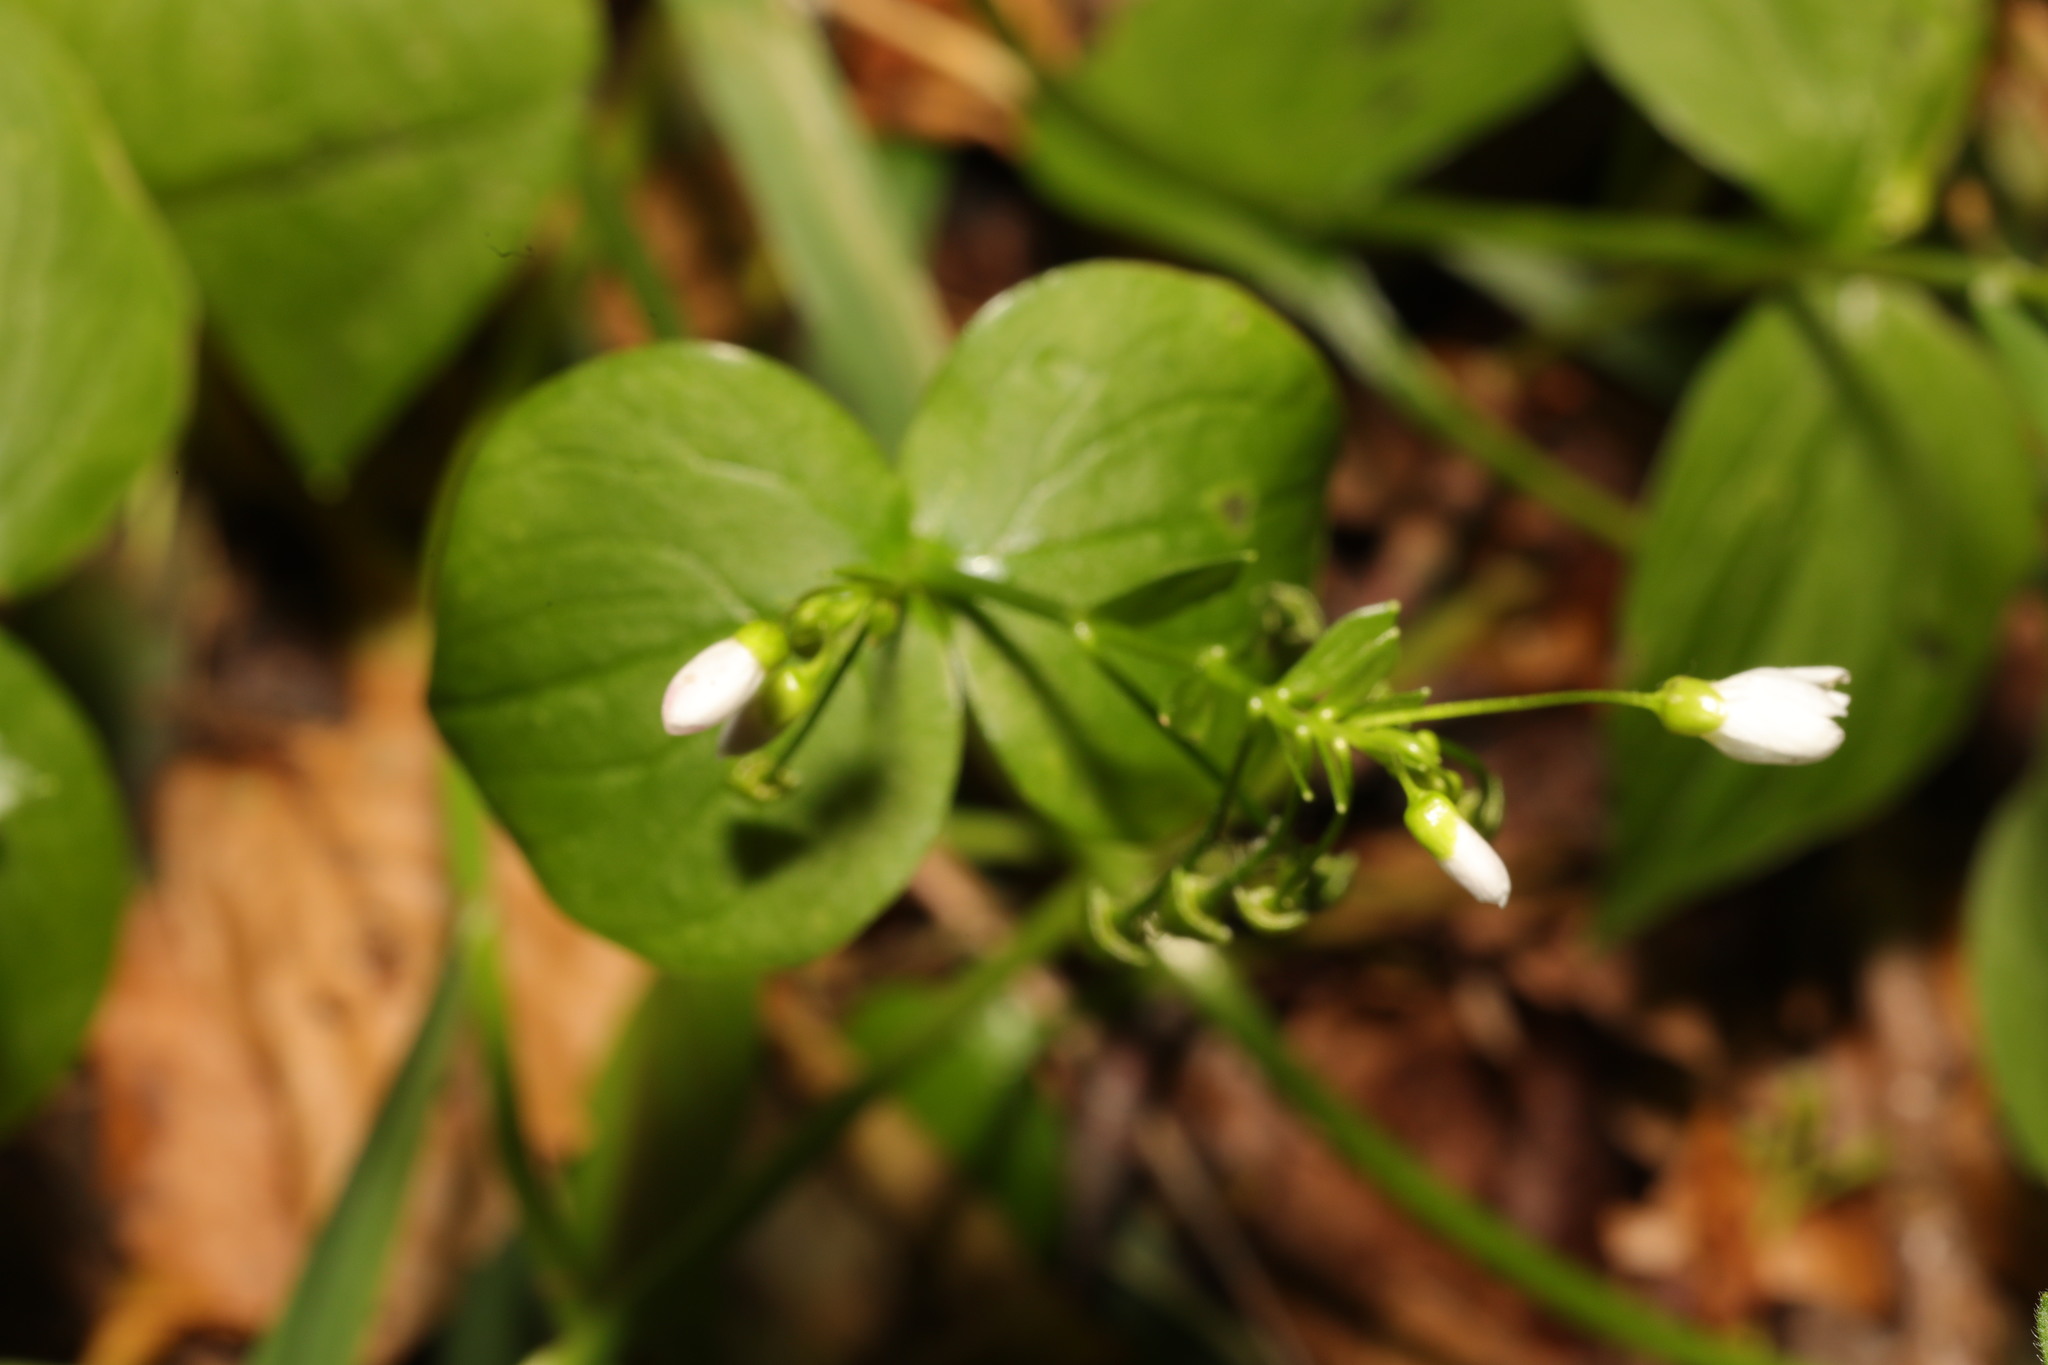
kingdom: Plantae
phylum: Tracheophyta
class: Magnoliopsida
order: Caryophyllales
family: Montiaceae
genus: Claytonia
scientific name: Claytonia sibirica
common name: Pink purslane
